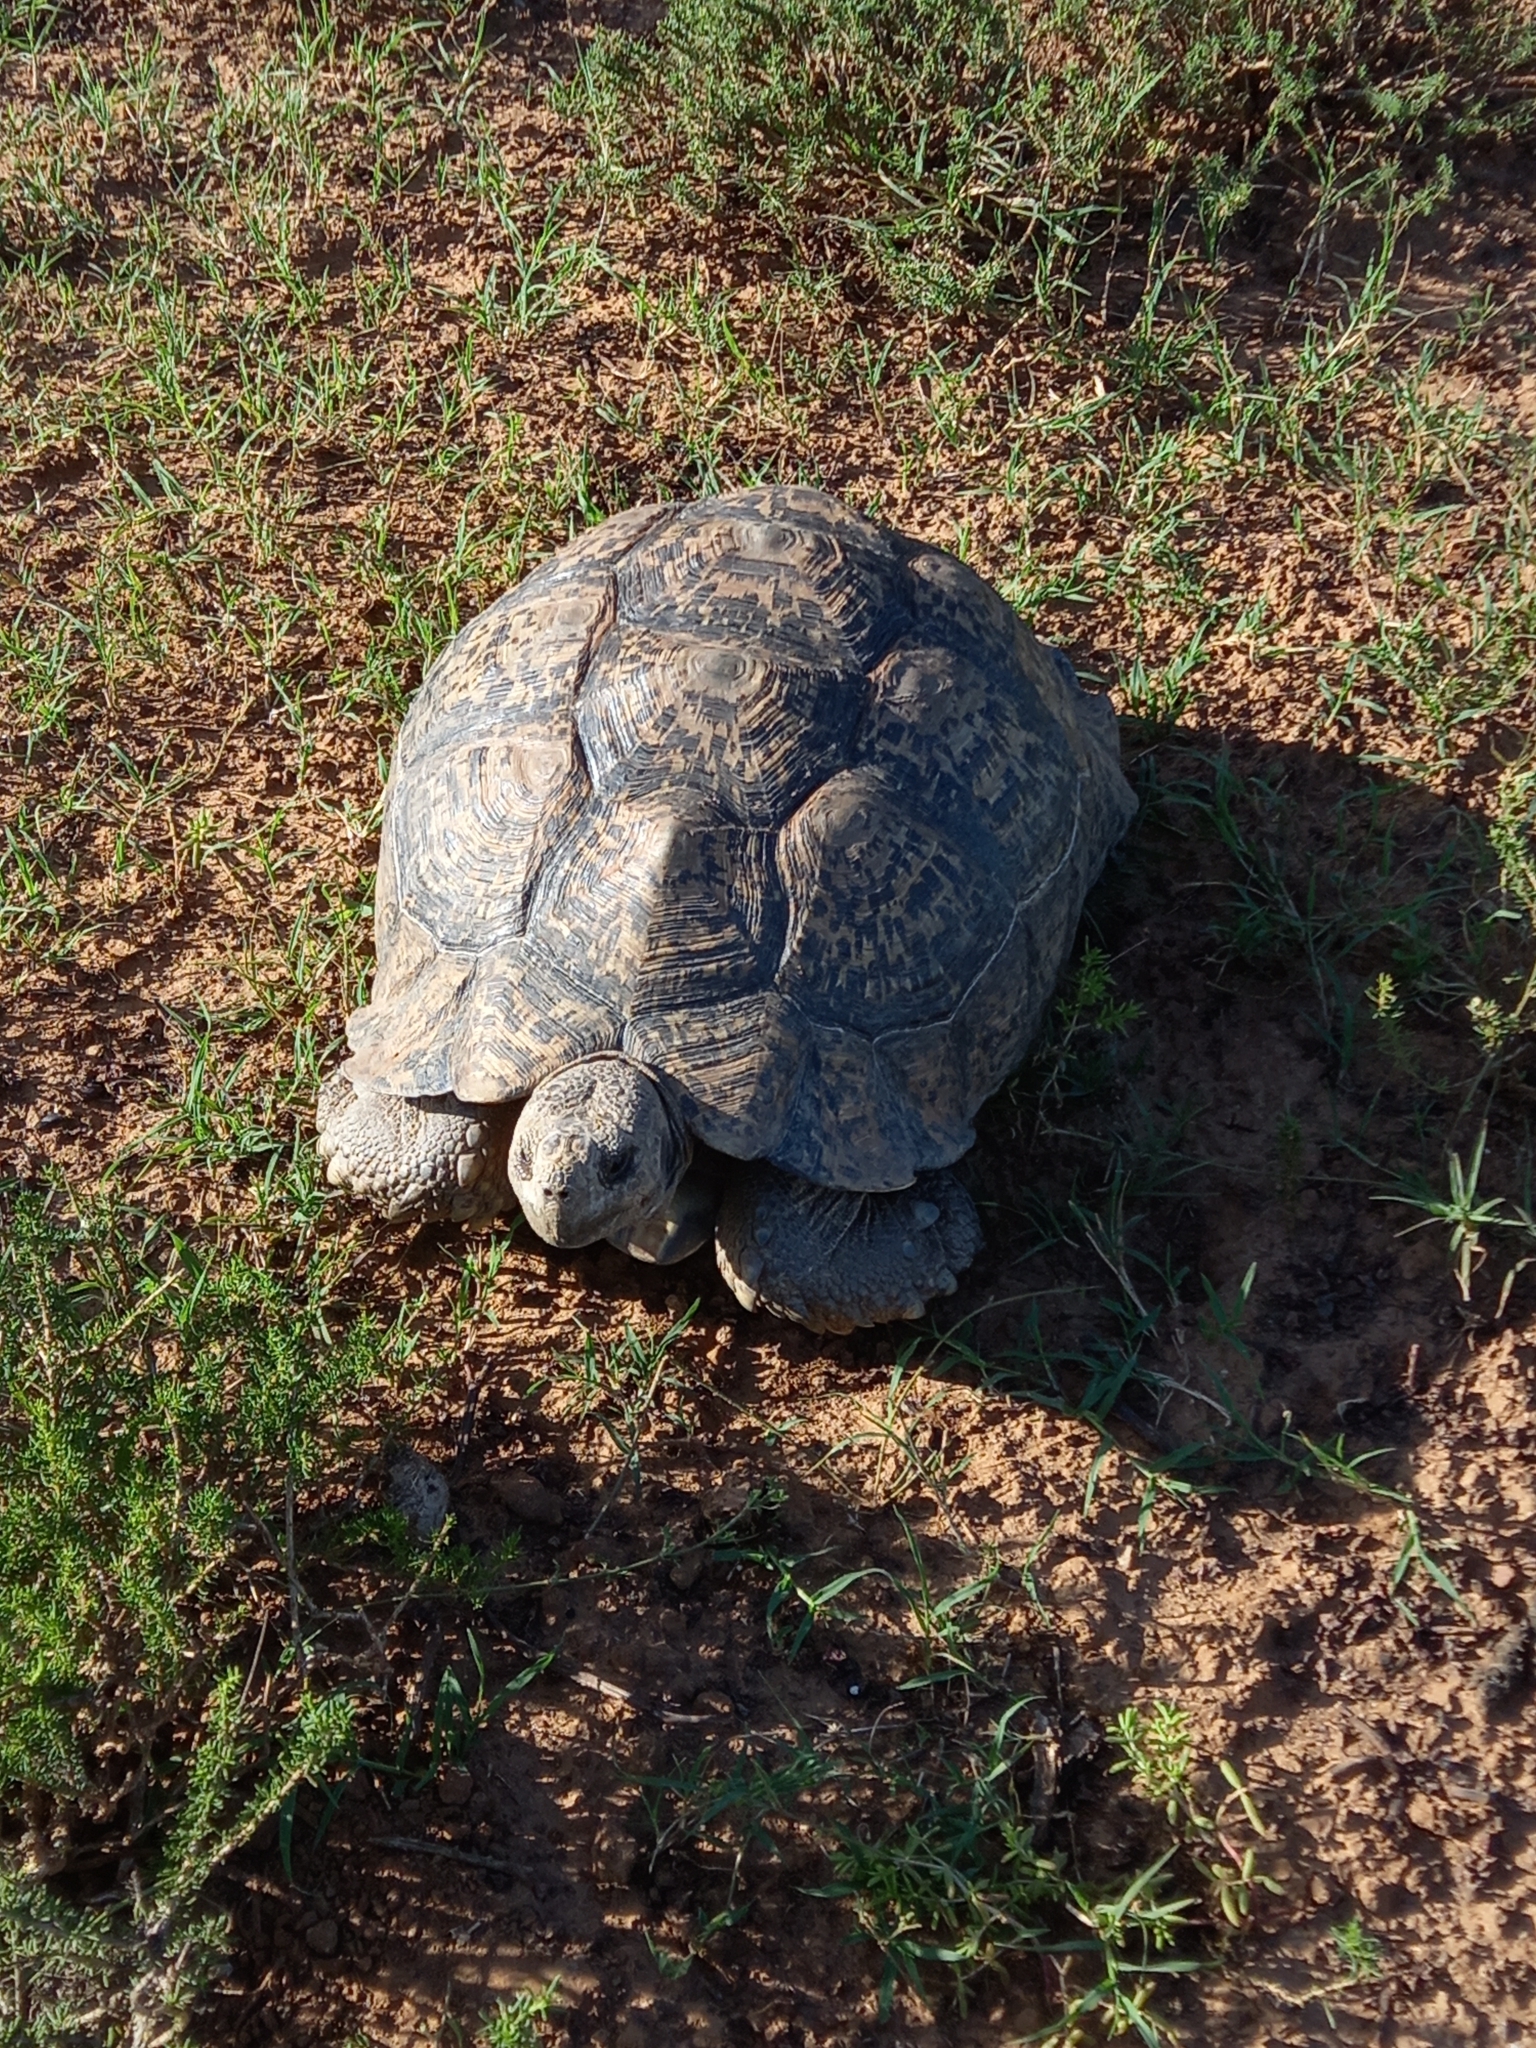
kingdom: Animalia
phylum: Chordata
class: Testudines
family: Testudinidae
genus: Stigmochelys
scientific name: Stigmochelys pardalis
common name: Leopard tortoise
